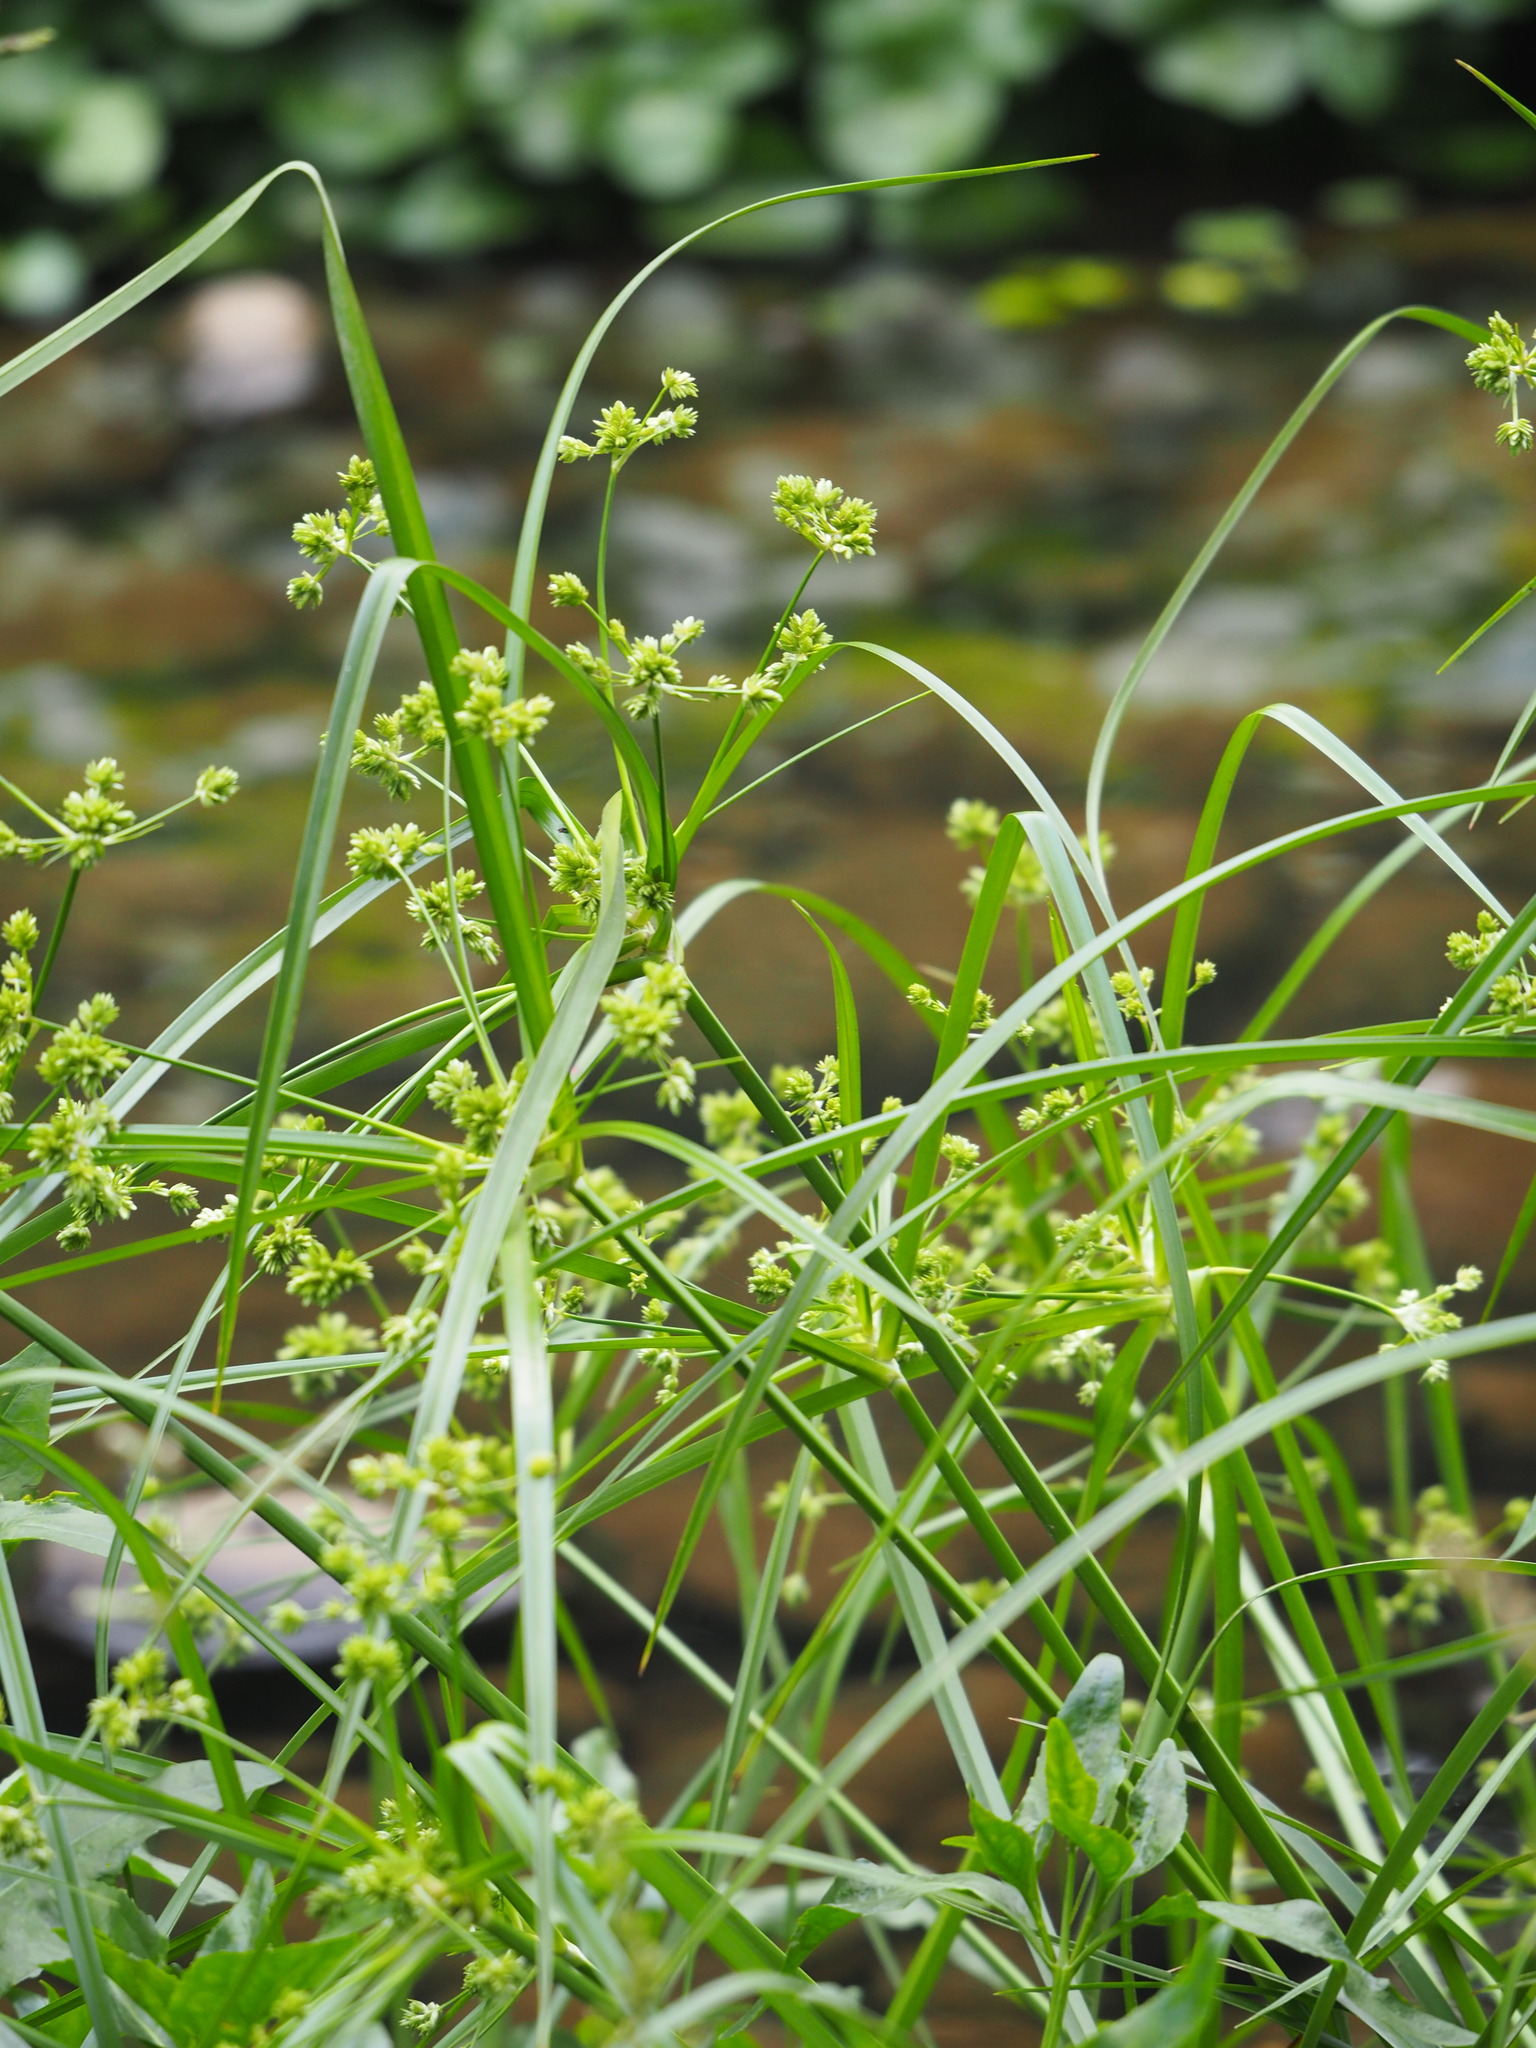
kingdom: Plantae
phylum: Tracheophyta
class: Liliopsida
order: Poales
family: Cyperaceae
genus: Cyperus
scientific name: Cyperus eragrostis
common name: Tall flatsedge
